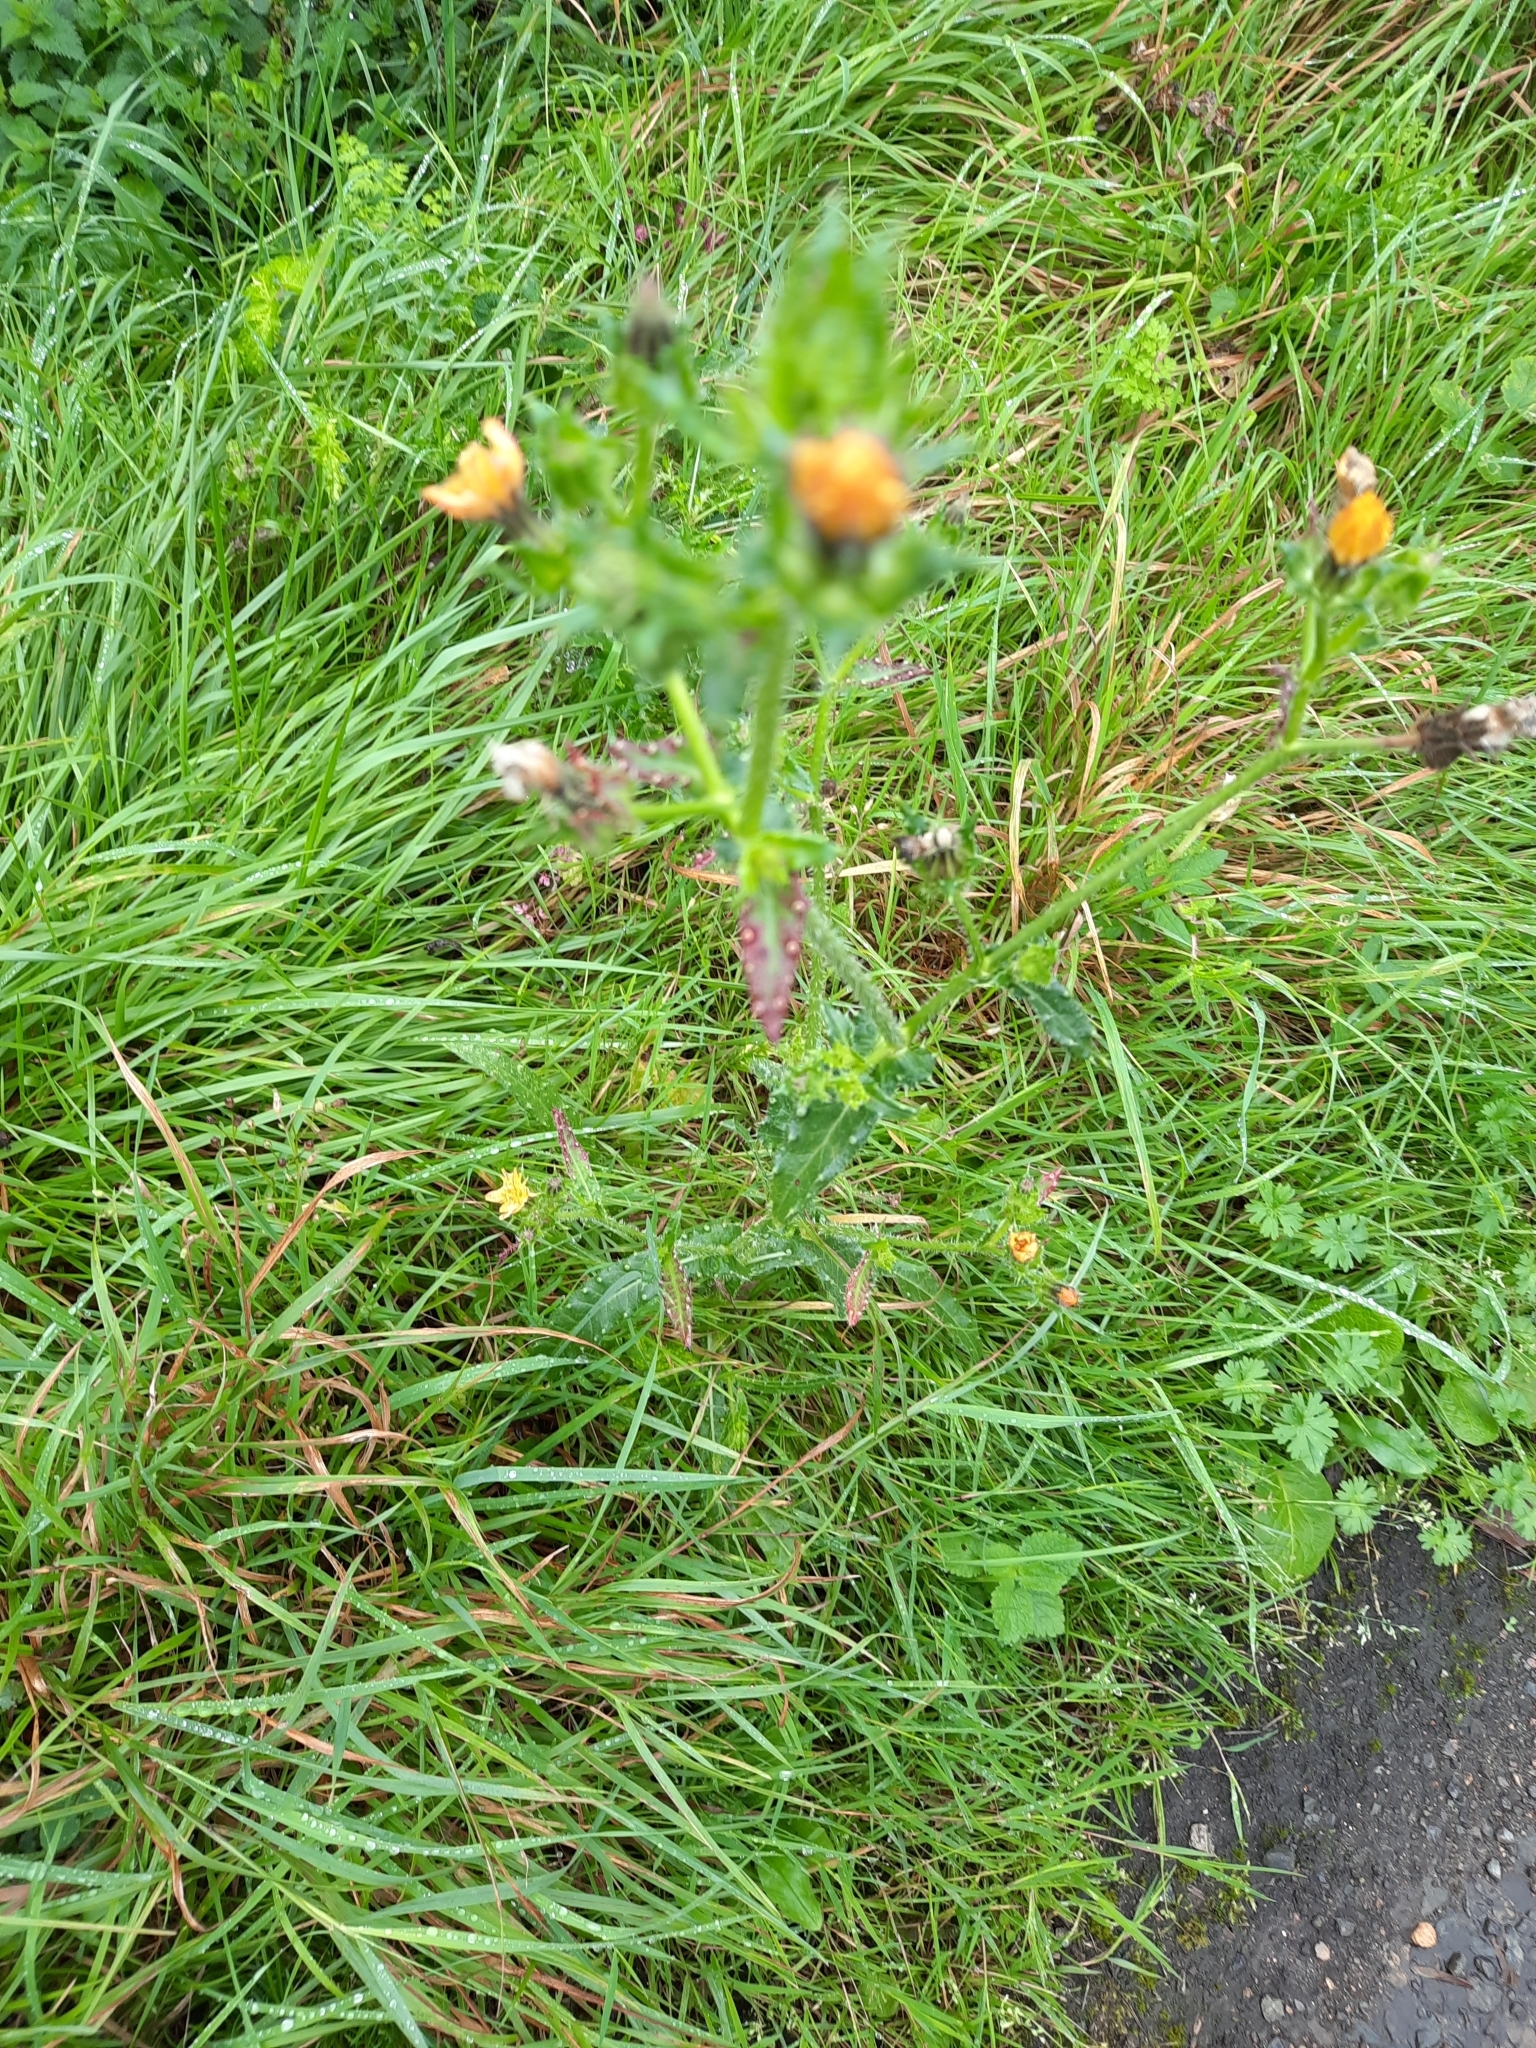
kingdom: Plantae
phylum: Tracheophyta
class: Magnoliopsida
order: Asterales
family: Asteraceae
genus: Helminthotheca
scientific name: Helminthotheca echioides
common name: Ox-tongue
